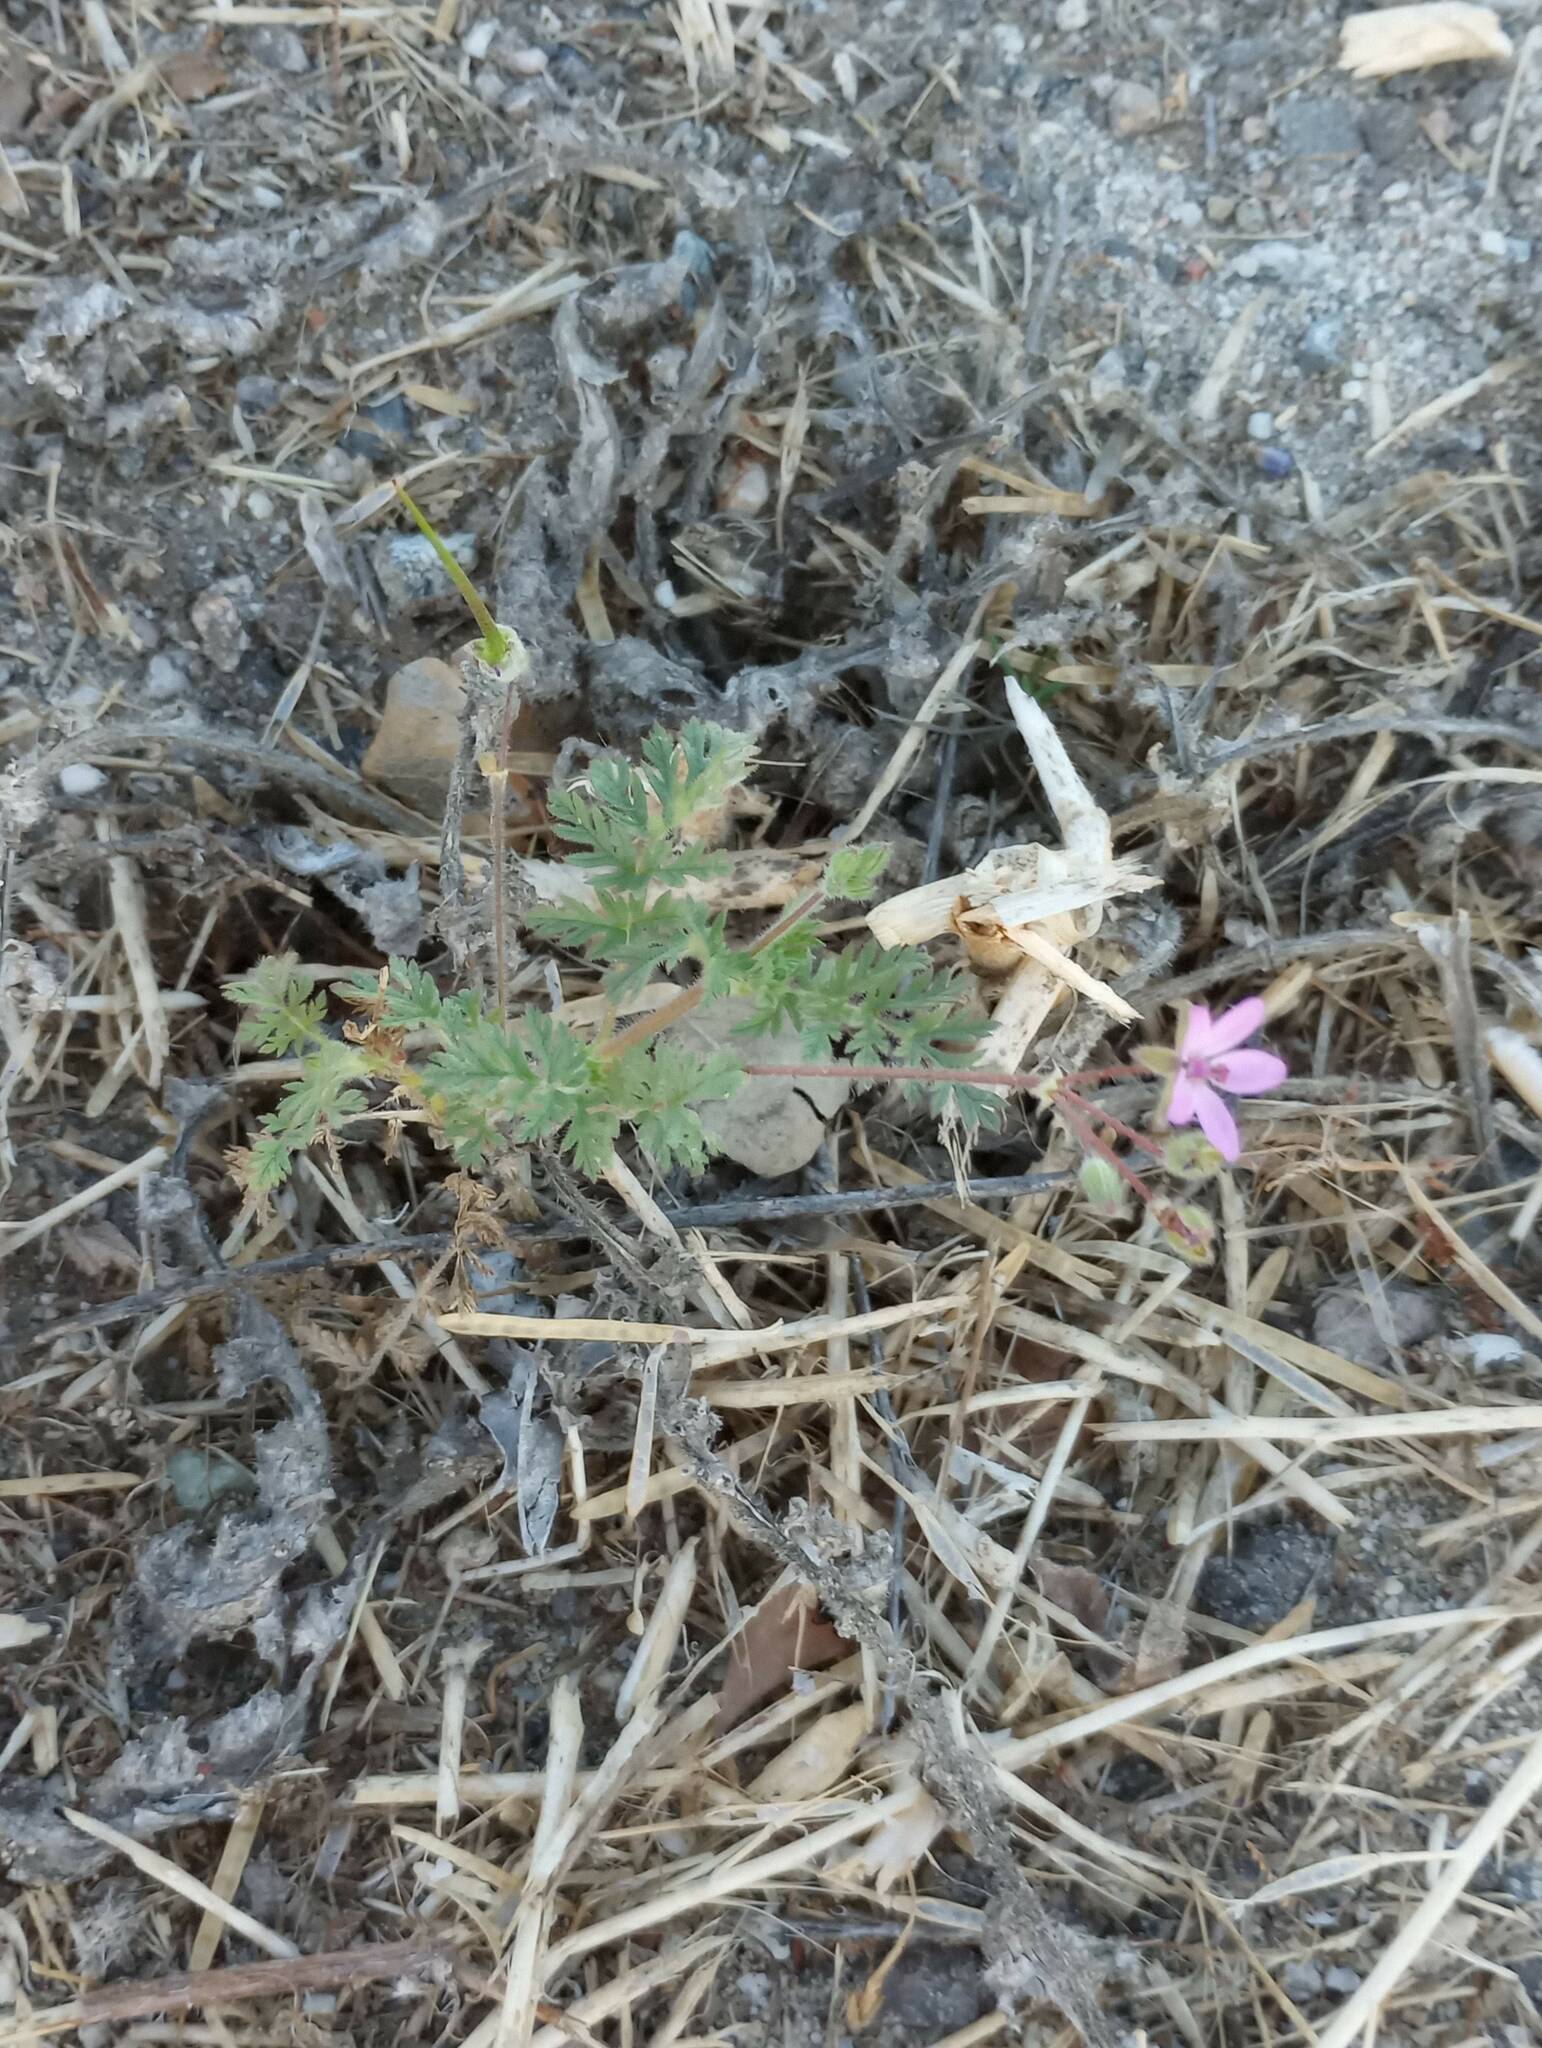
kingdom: Plantae
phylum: Tracheophyta
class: Magnoliopsida
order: Geraniales
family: Geraniaceae
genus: Erodium
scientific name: Erodium cicutarium
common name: Common stork's-bill
